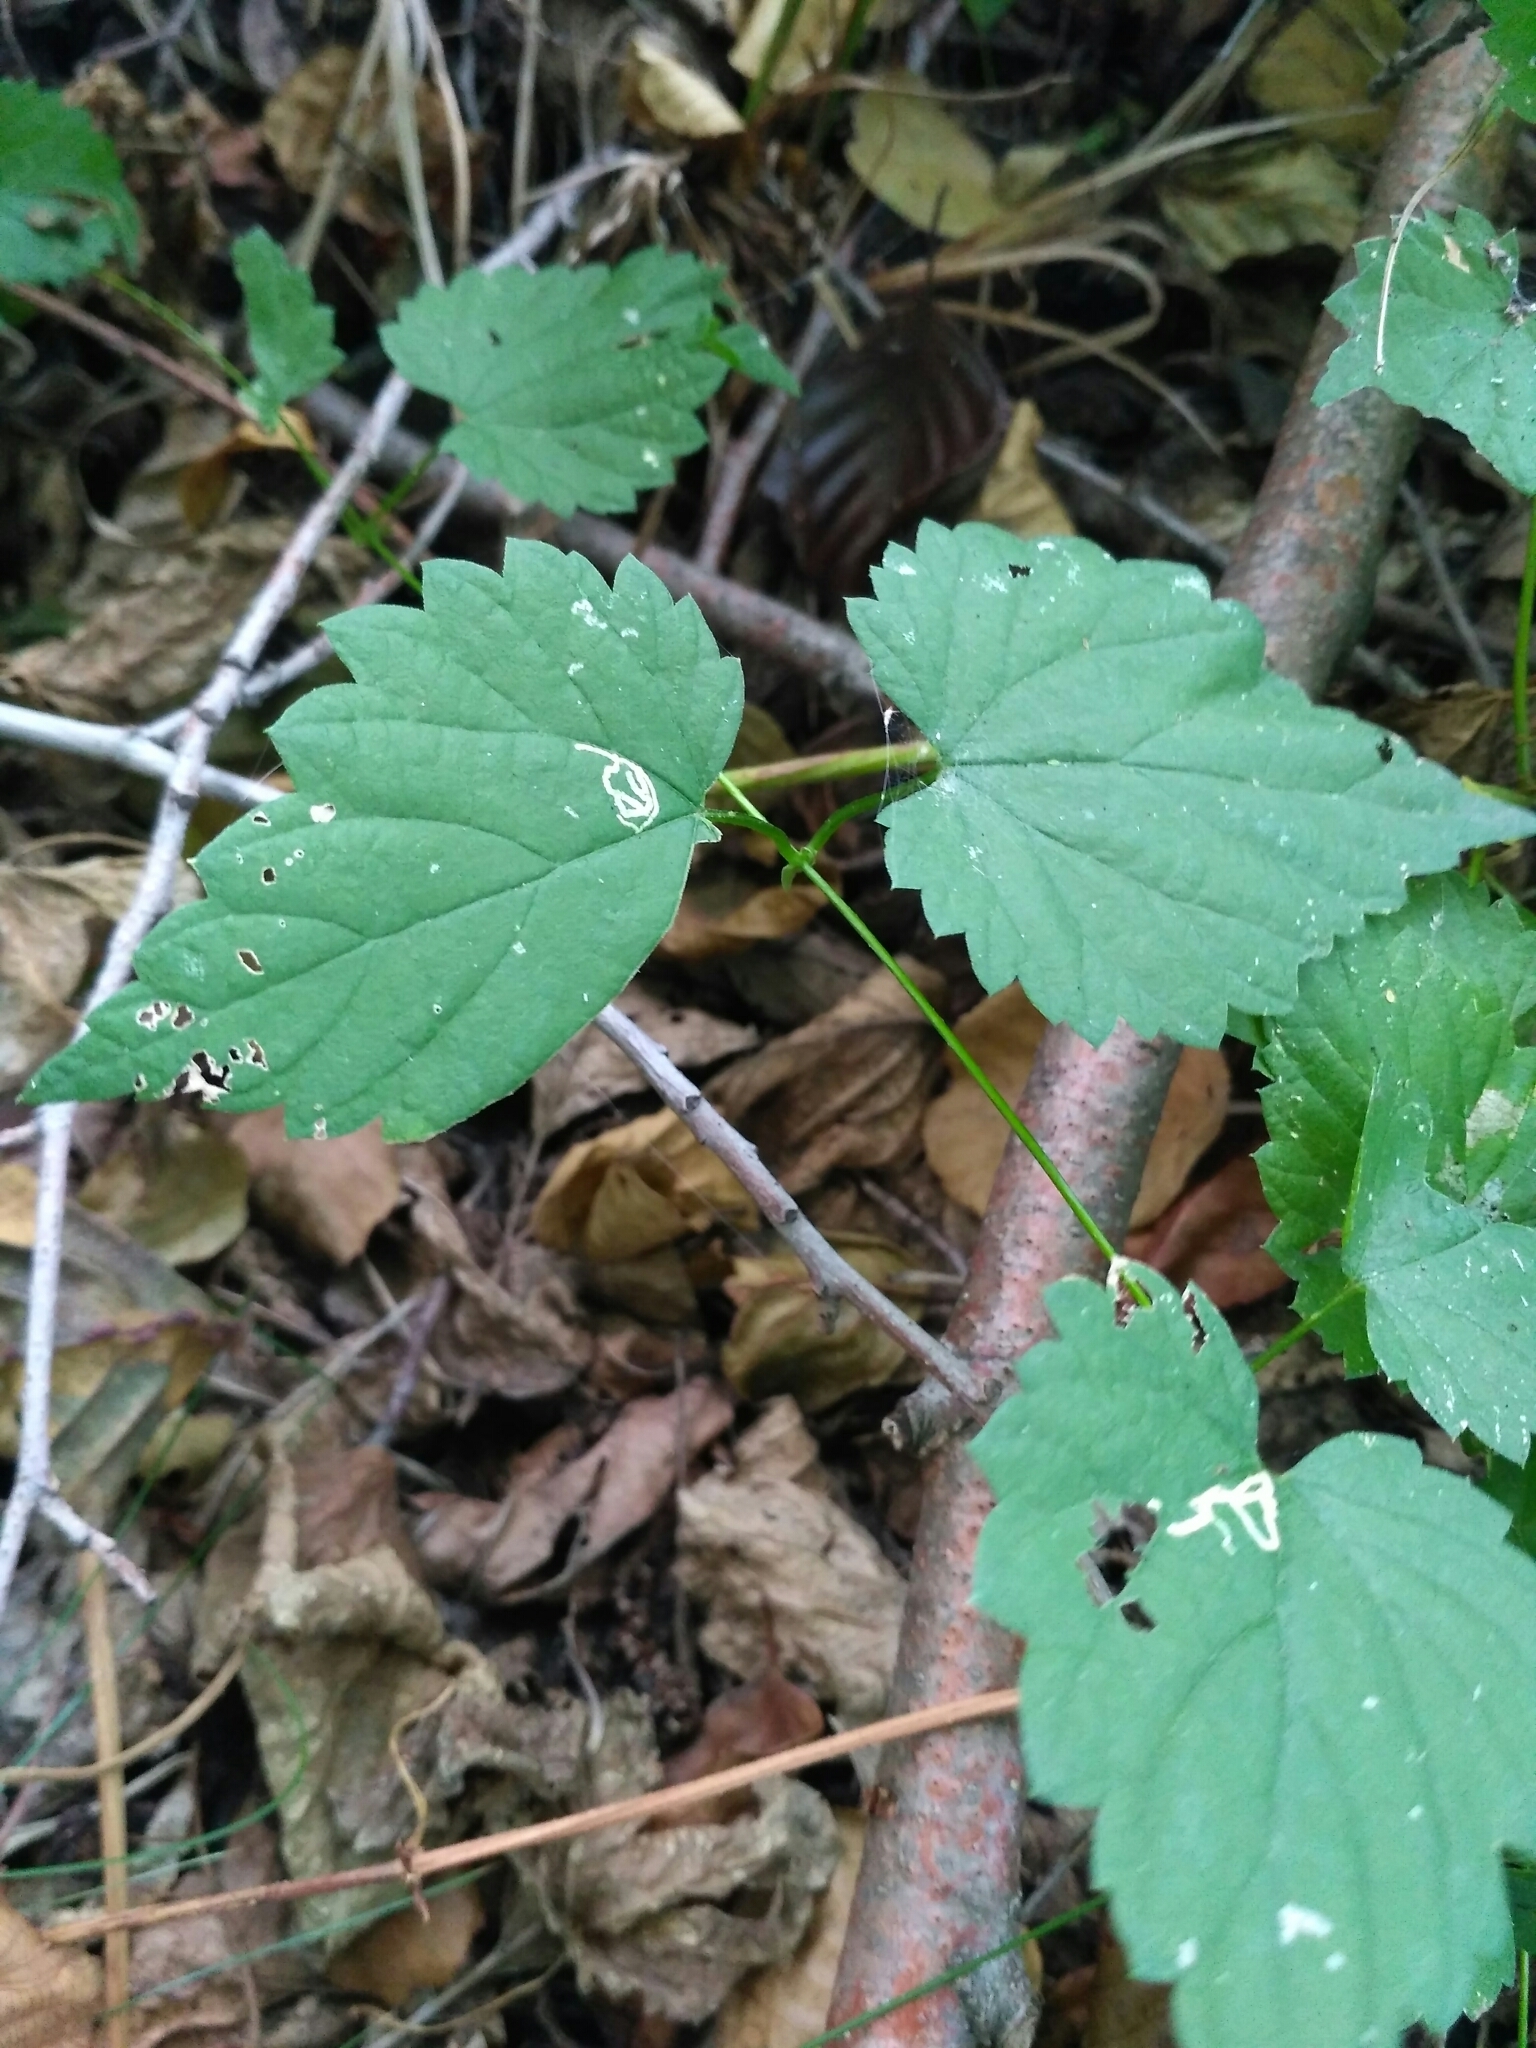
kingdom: Plantae
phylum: Tracheophyta
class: Magnoliopsida
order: Rosales
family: Cannabaceae
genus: Humulus
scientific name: Humulus lupulus
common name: Hop
